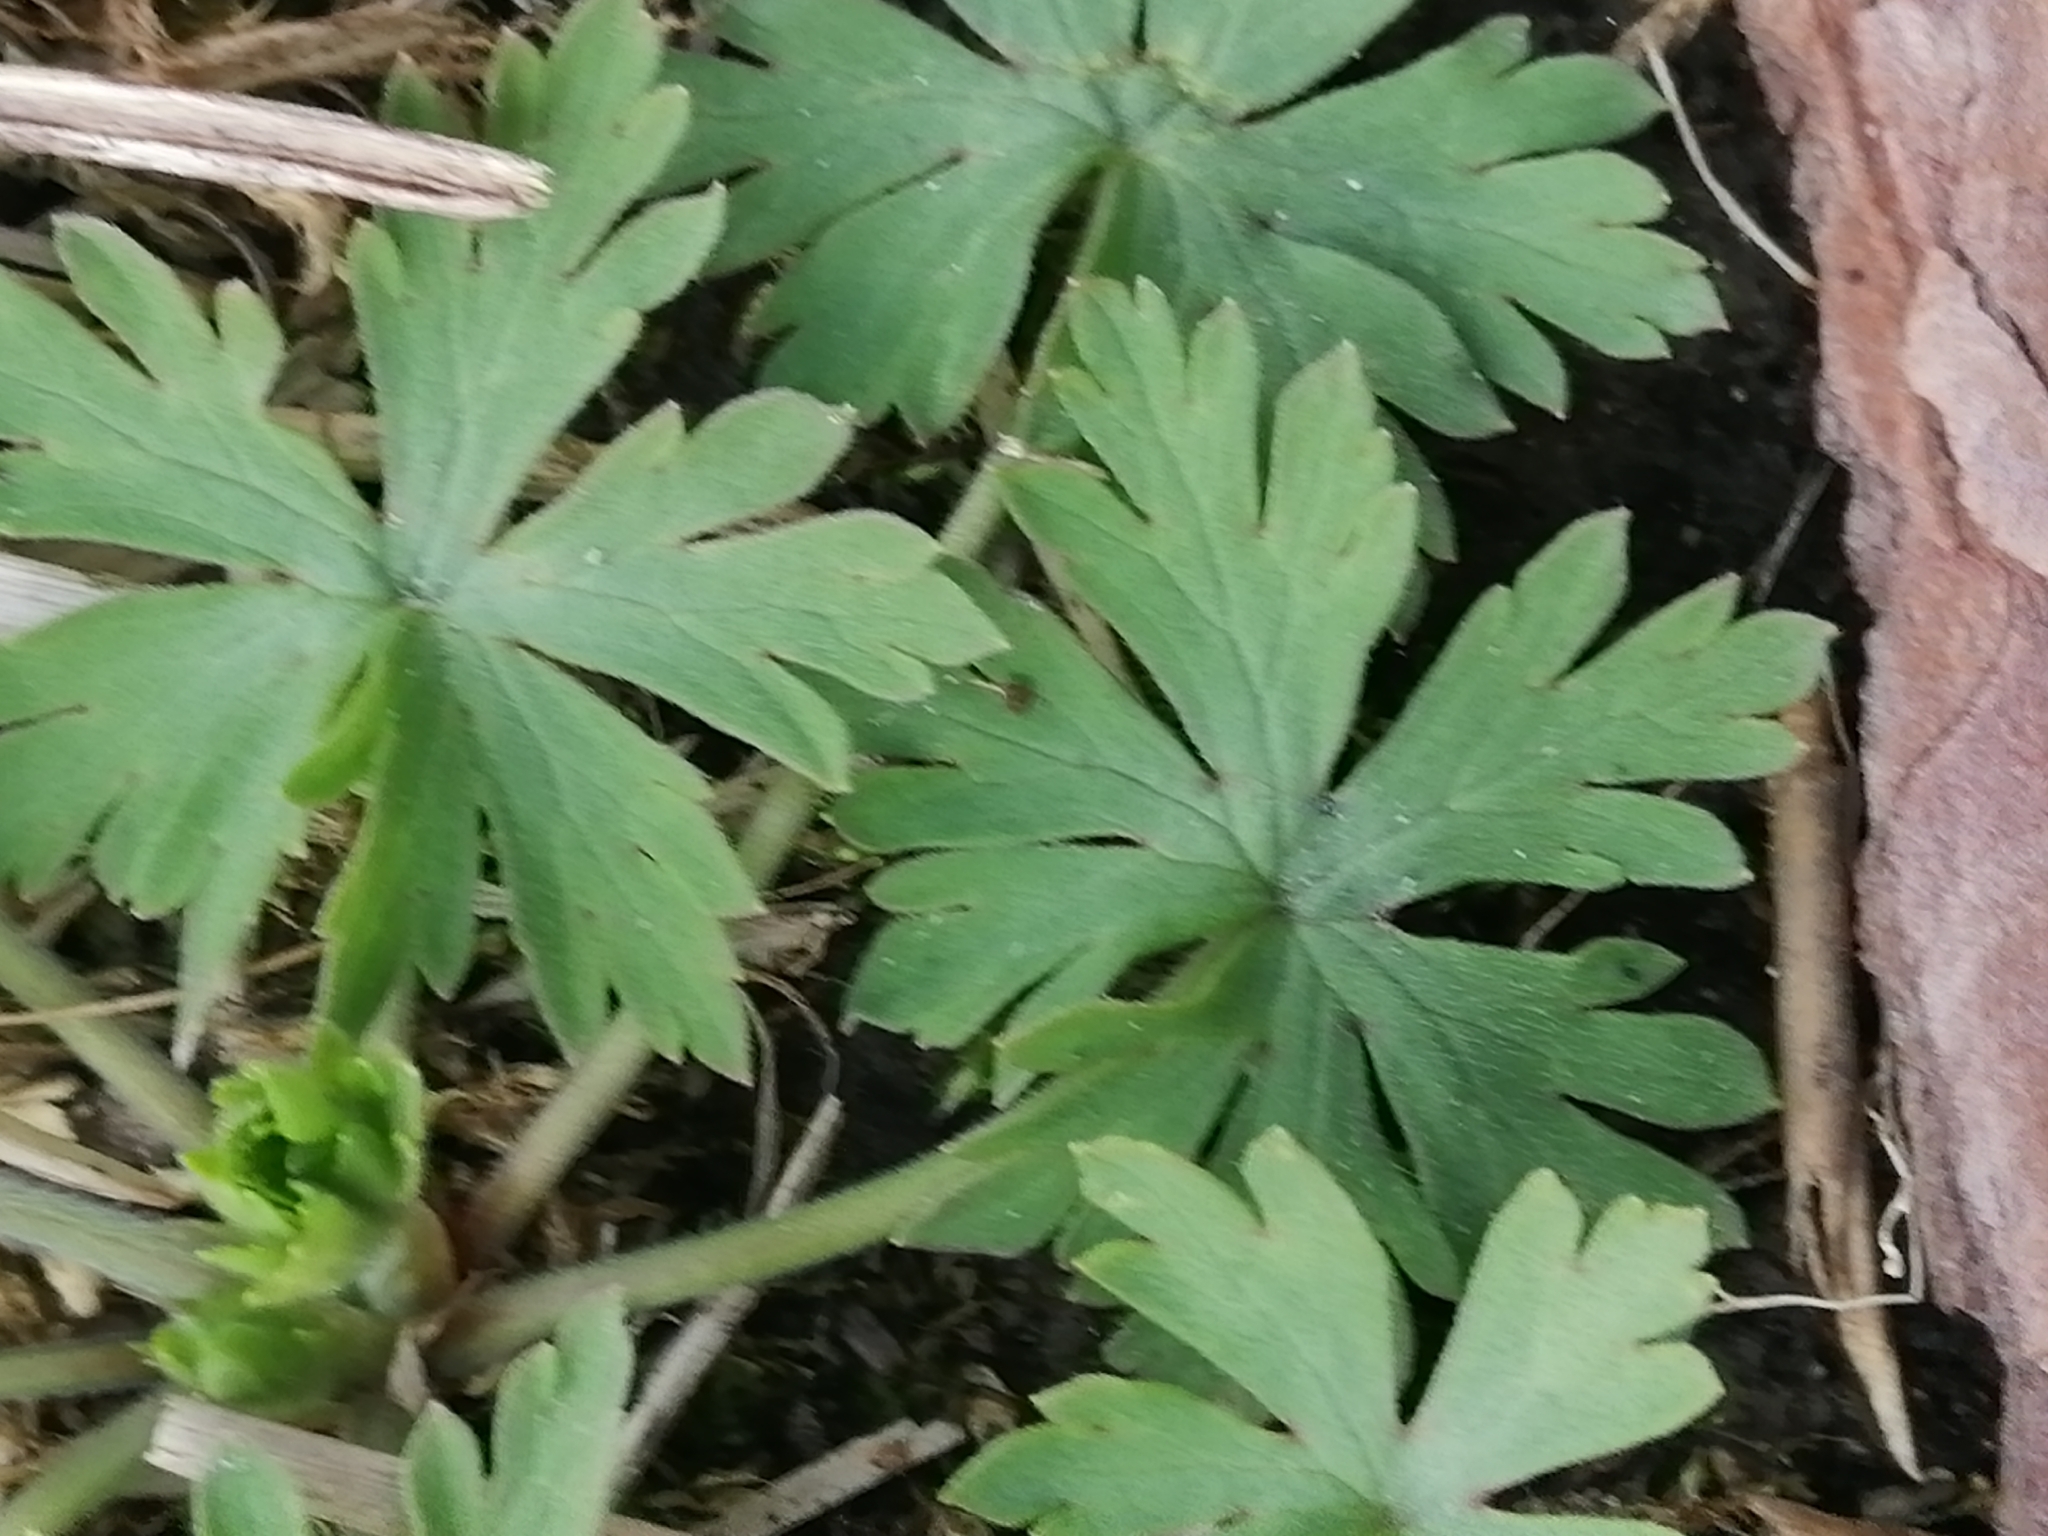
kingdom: Plantae
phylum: Tracheophyta
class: Magnoliopsida
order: Geraniales
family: Geraniaceae
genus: Geranium
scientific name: Geranium sibiricum
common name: Siberian crane's-bill
